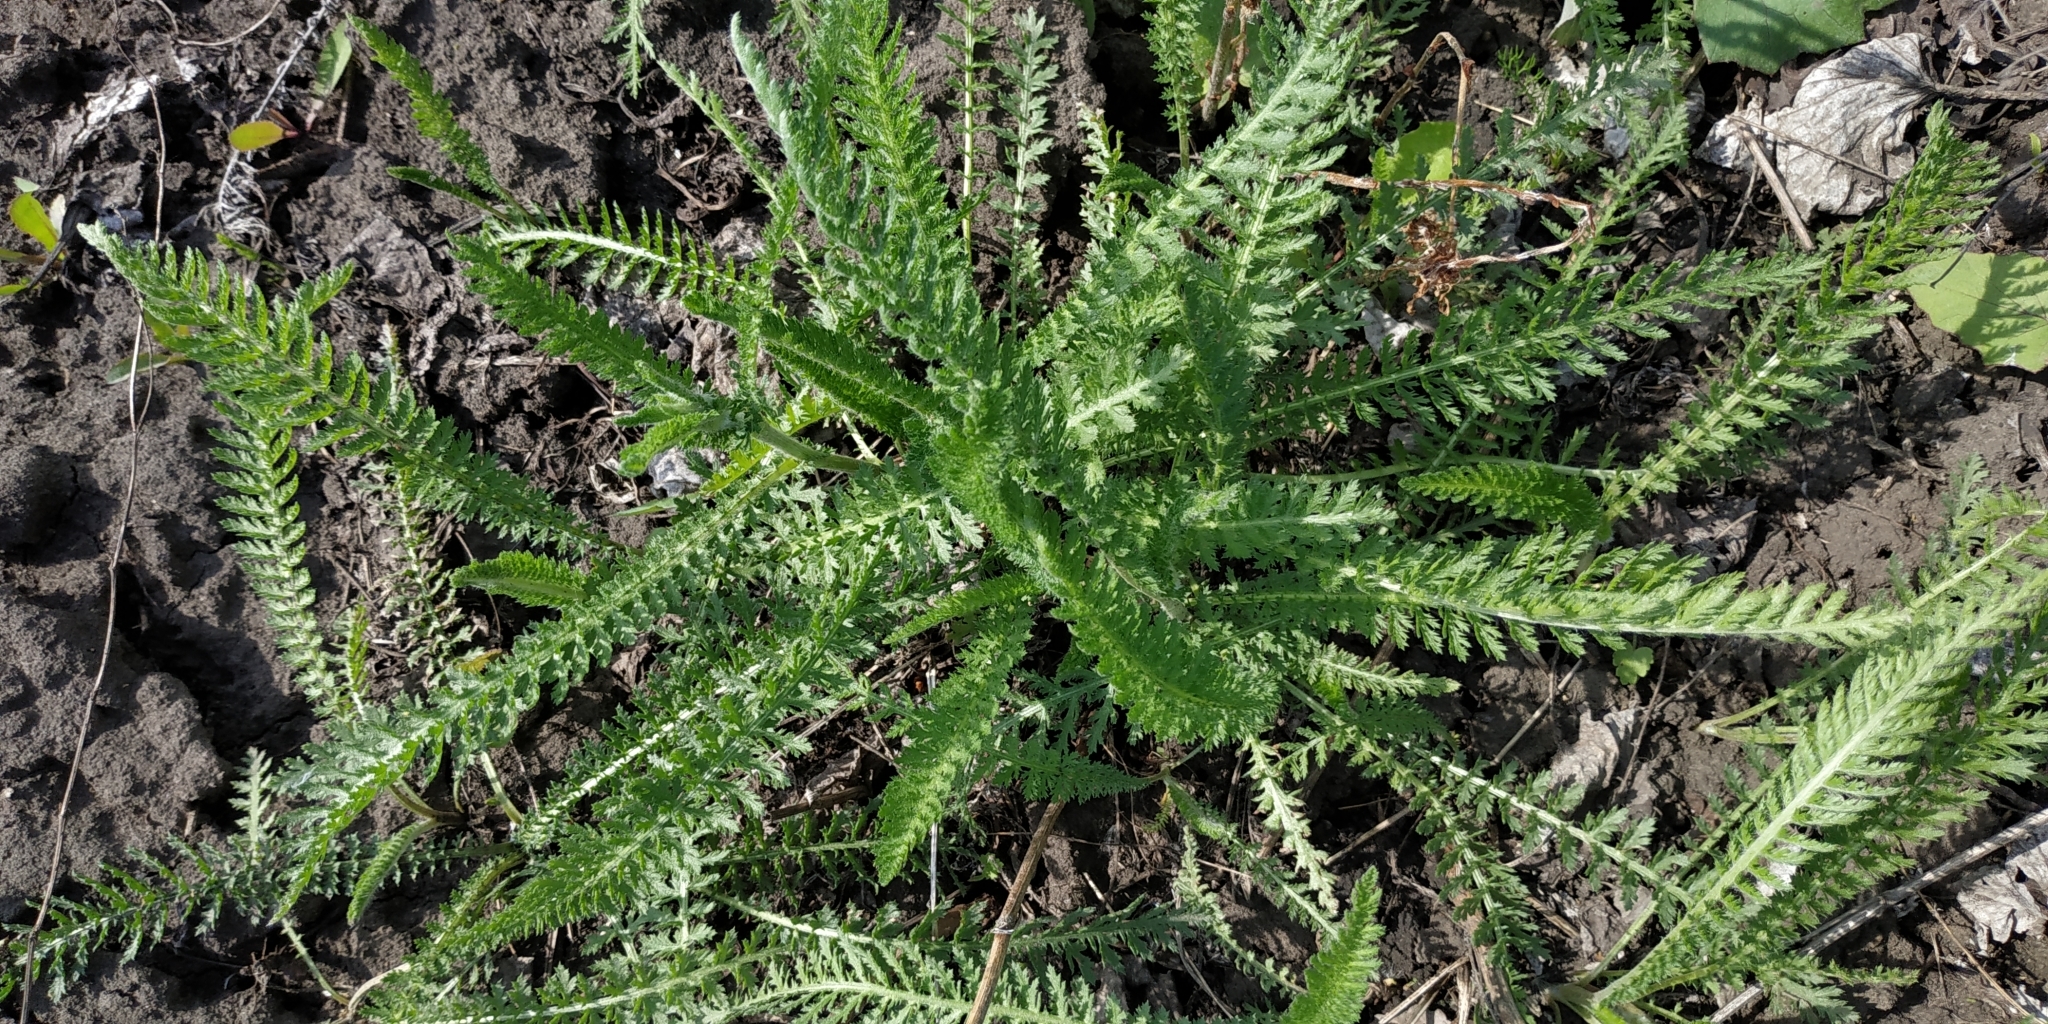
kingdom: Plantae
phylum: Tracheophyta
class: Magnoliopsida
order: Asterales
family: Asteraceae
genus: Achillea
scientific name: Achillea millefolium
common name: Yarrow
